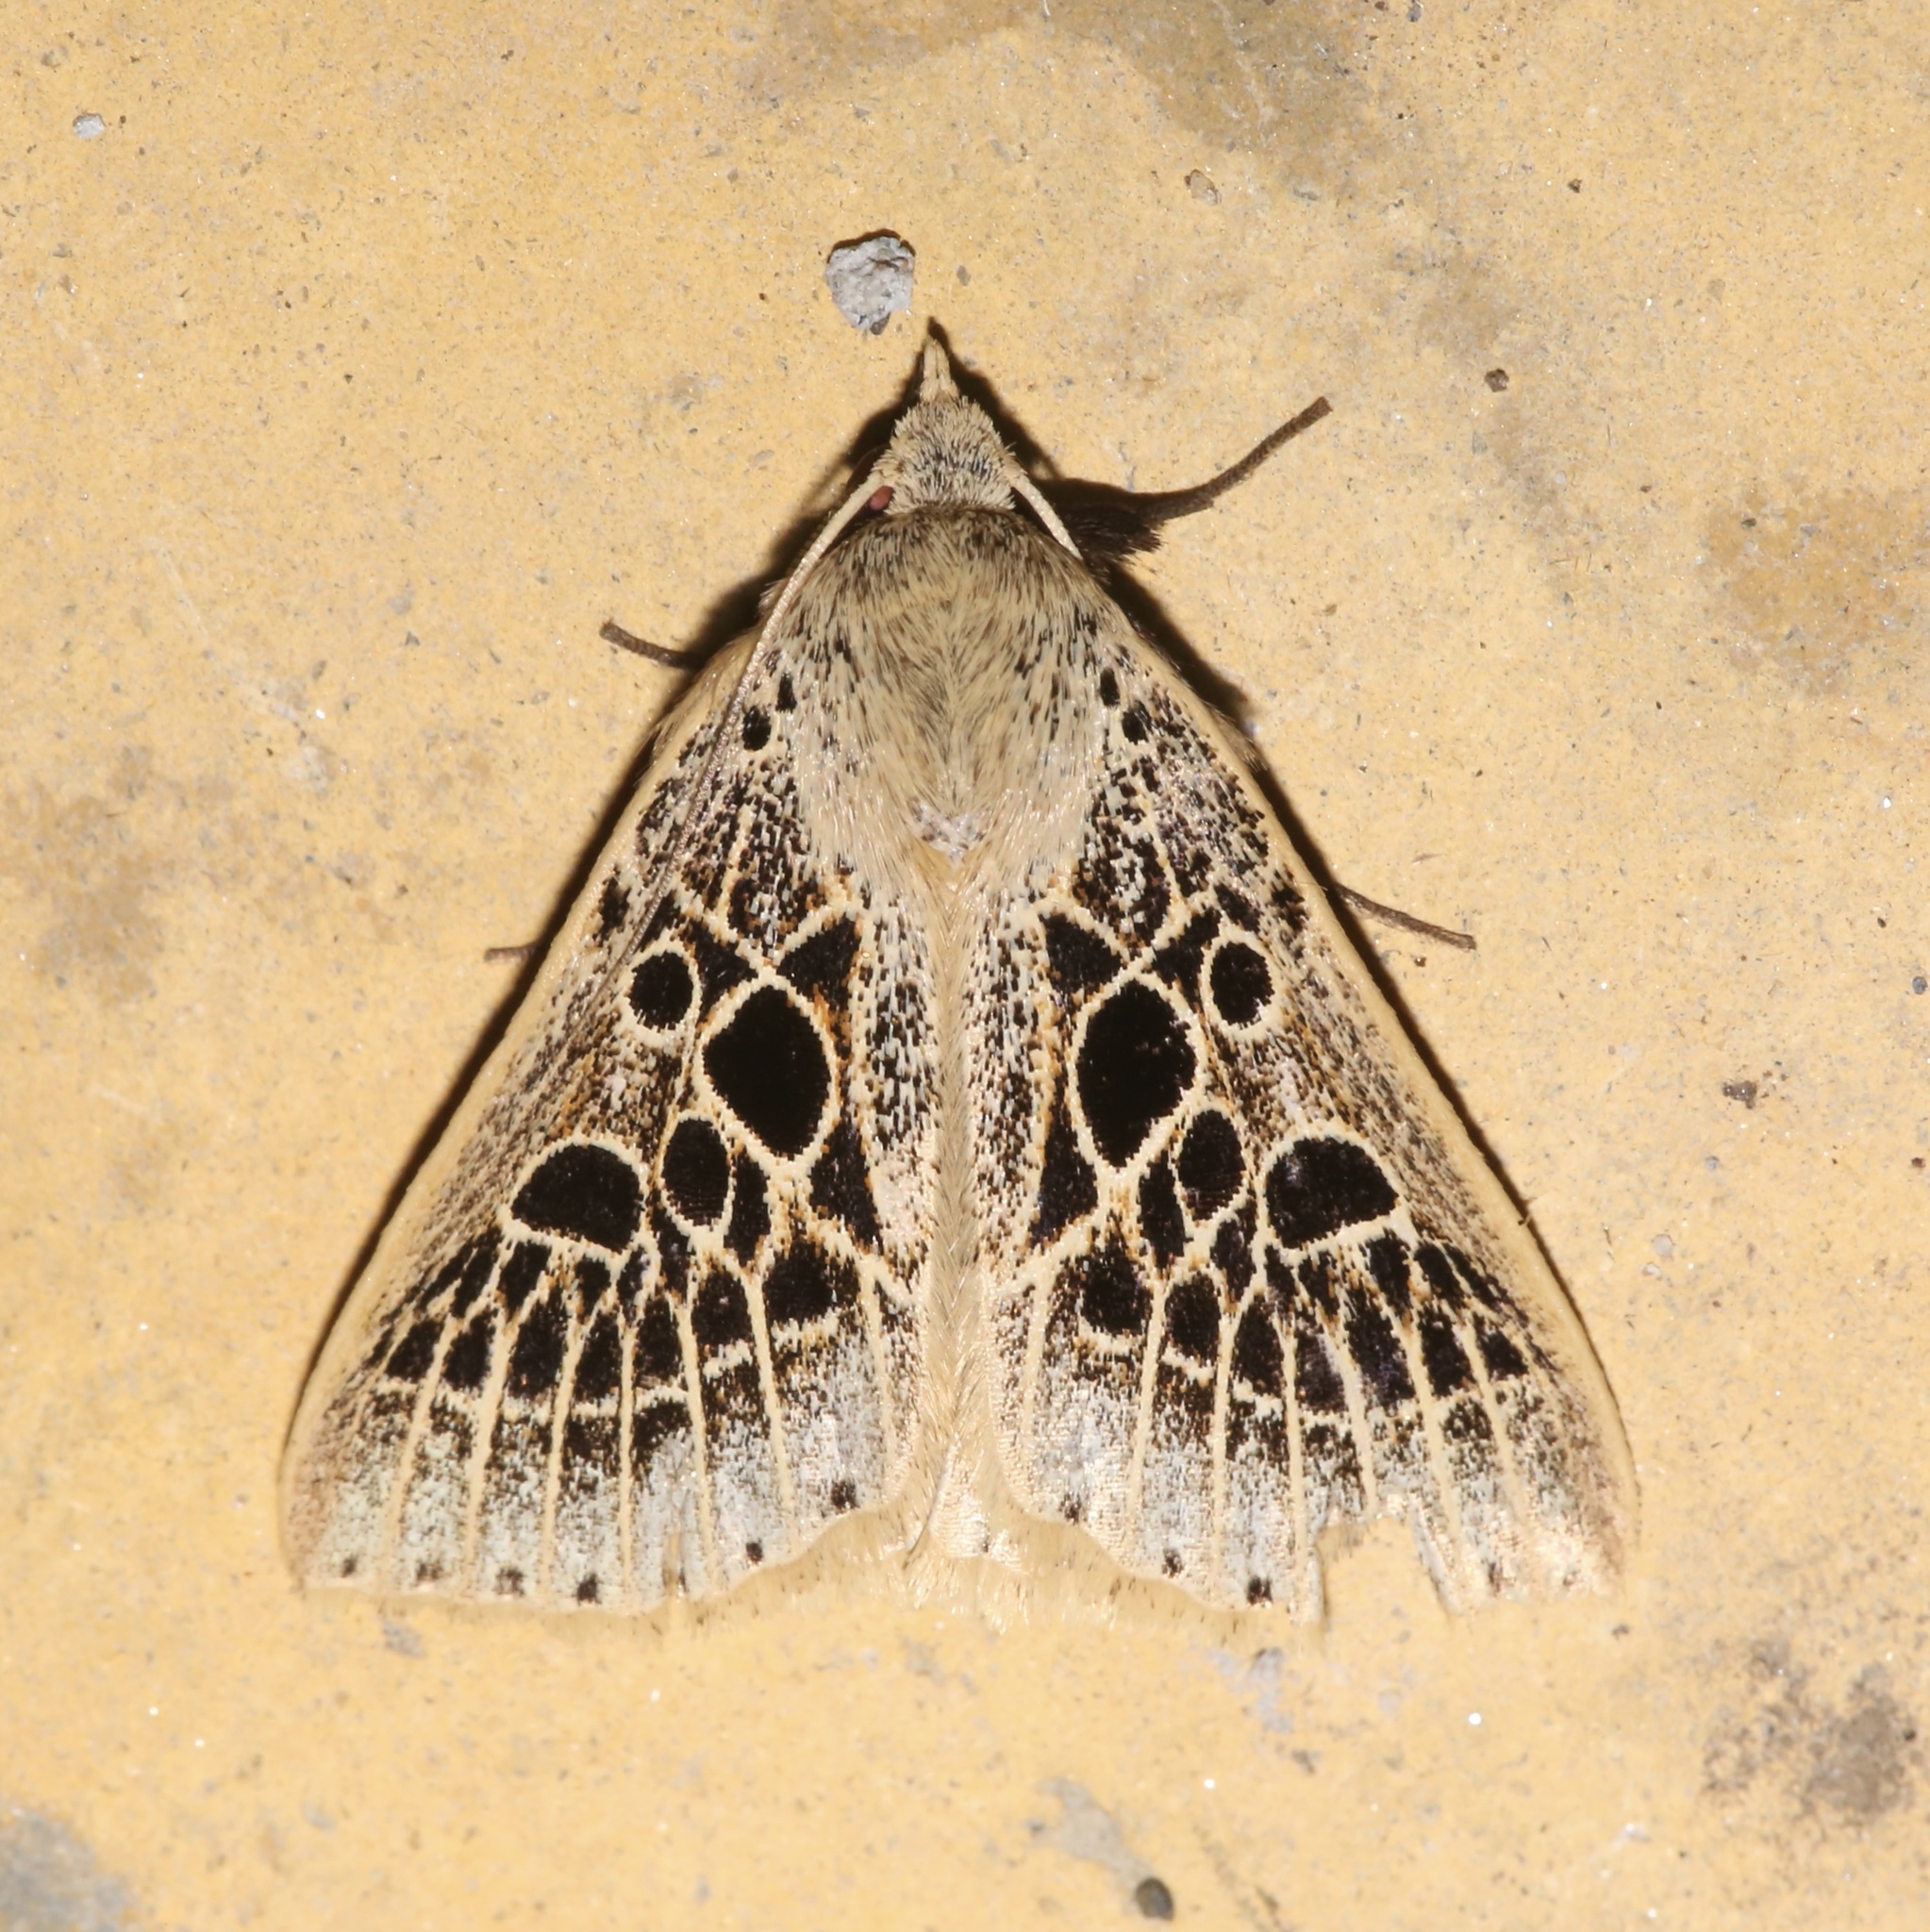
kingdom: Animalia
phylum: Arthropoda
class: Insecta
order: Lepidoptera
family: Erebidae
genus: Scolecocampa
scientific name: Scolecocampa Herminodes tessellata
